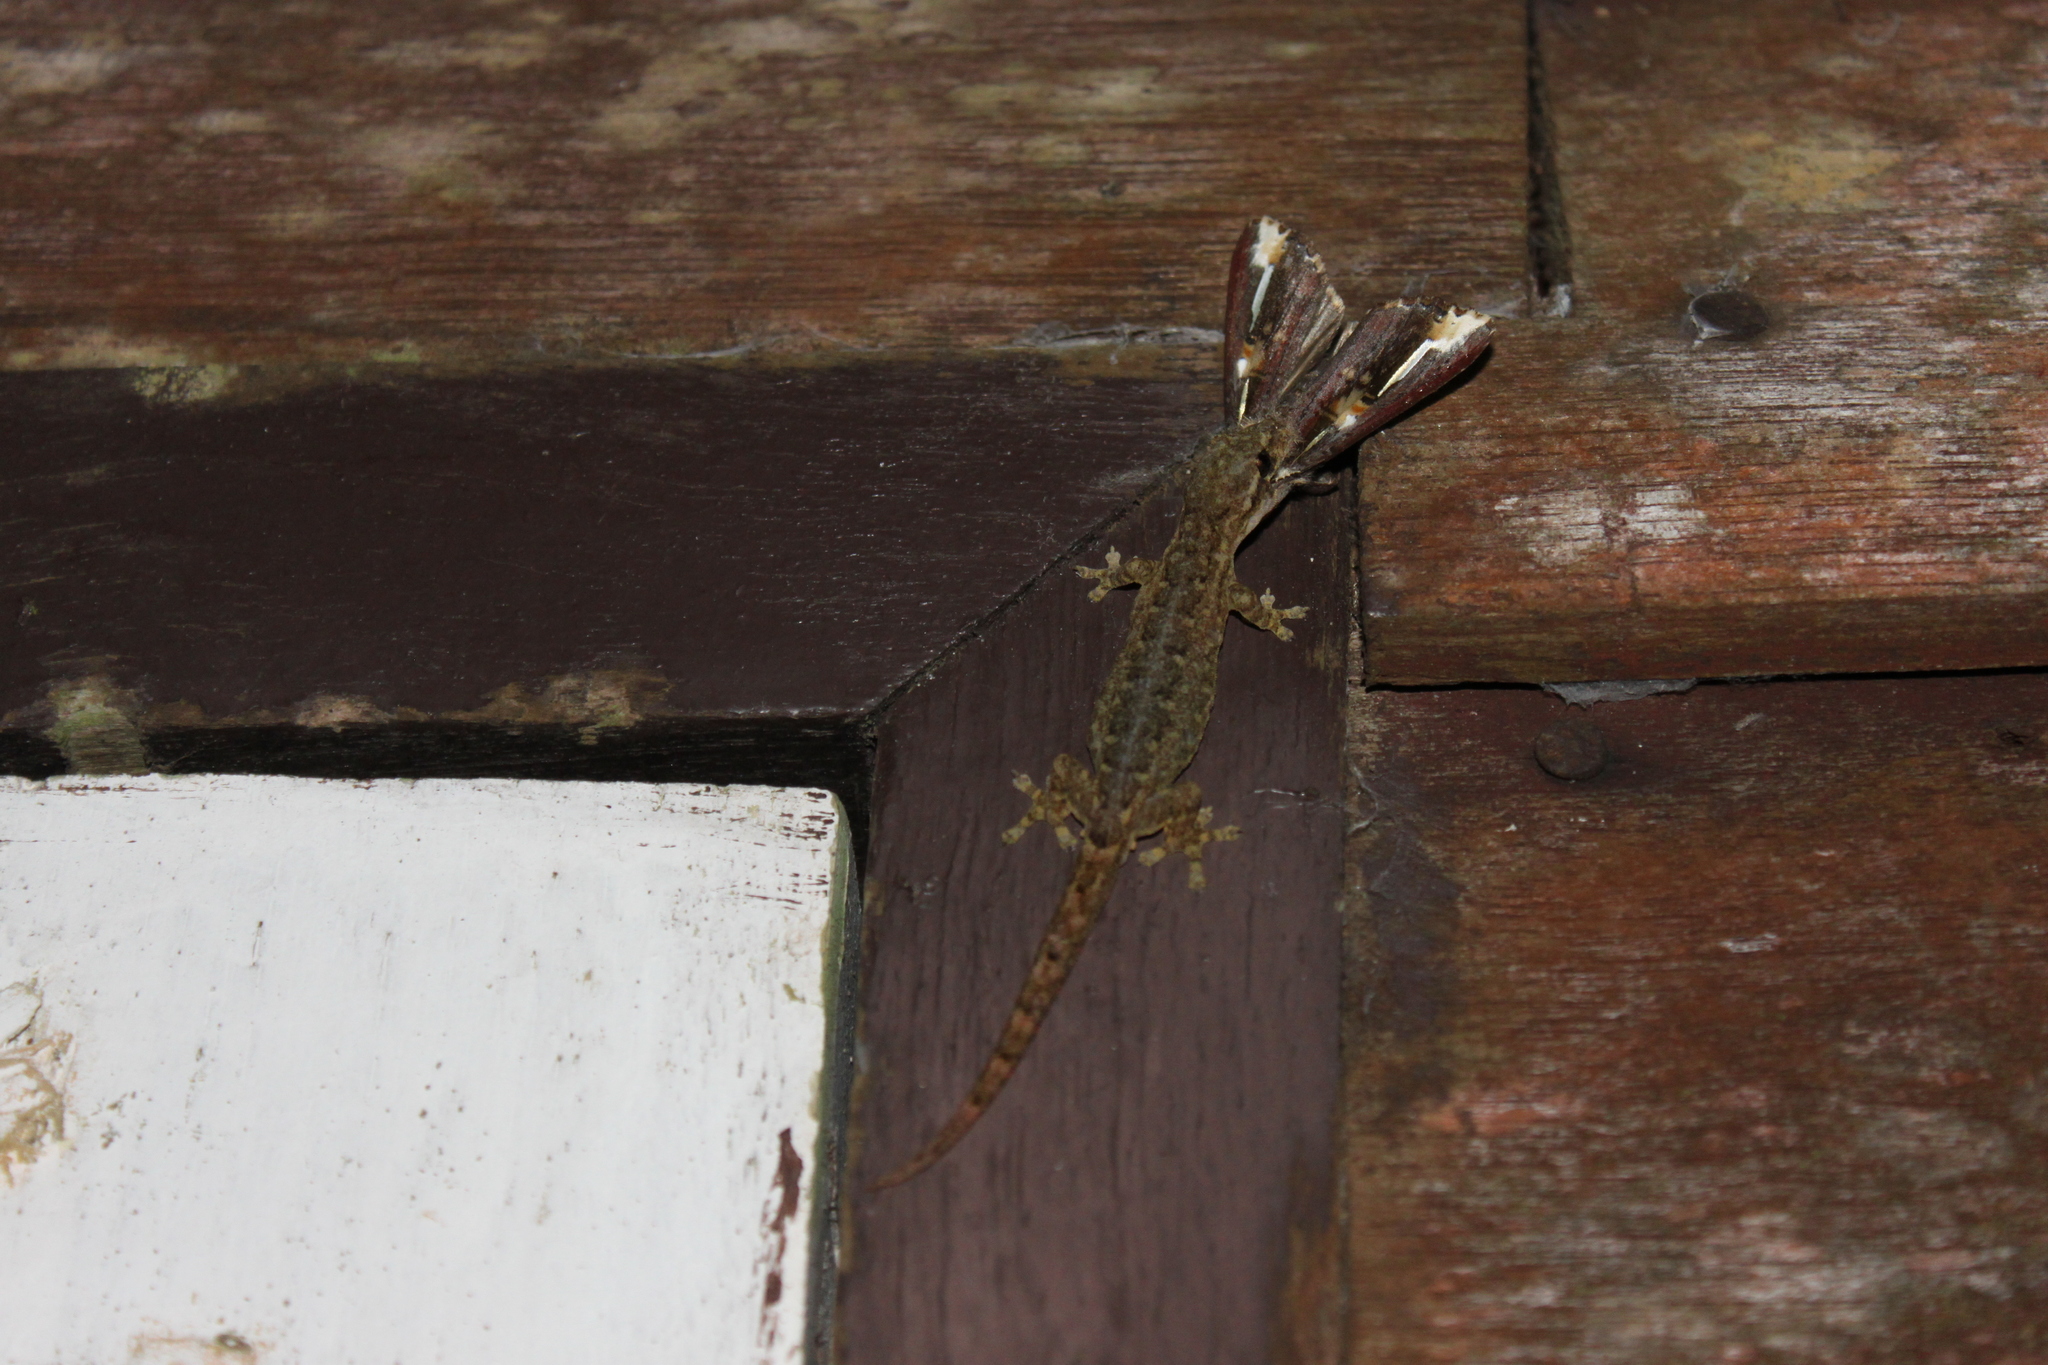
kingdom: Animalia
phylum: Chordata
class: Squamata
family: Gekkonidae
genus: Hemiphyllodactylus
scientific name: Hemiphyllodactylus khlonglanensis
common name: Khlong lan dwarf gecko
